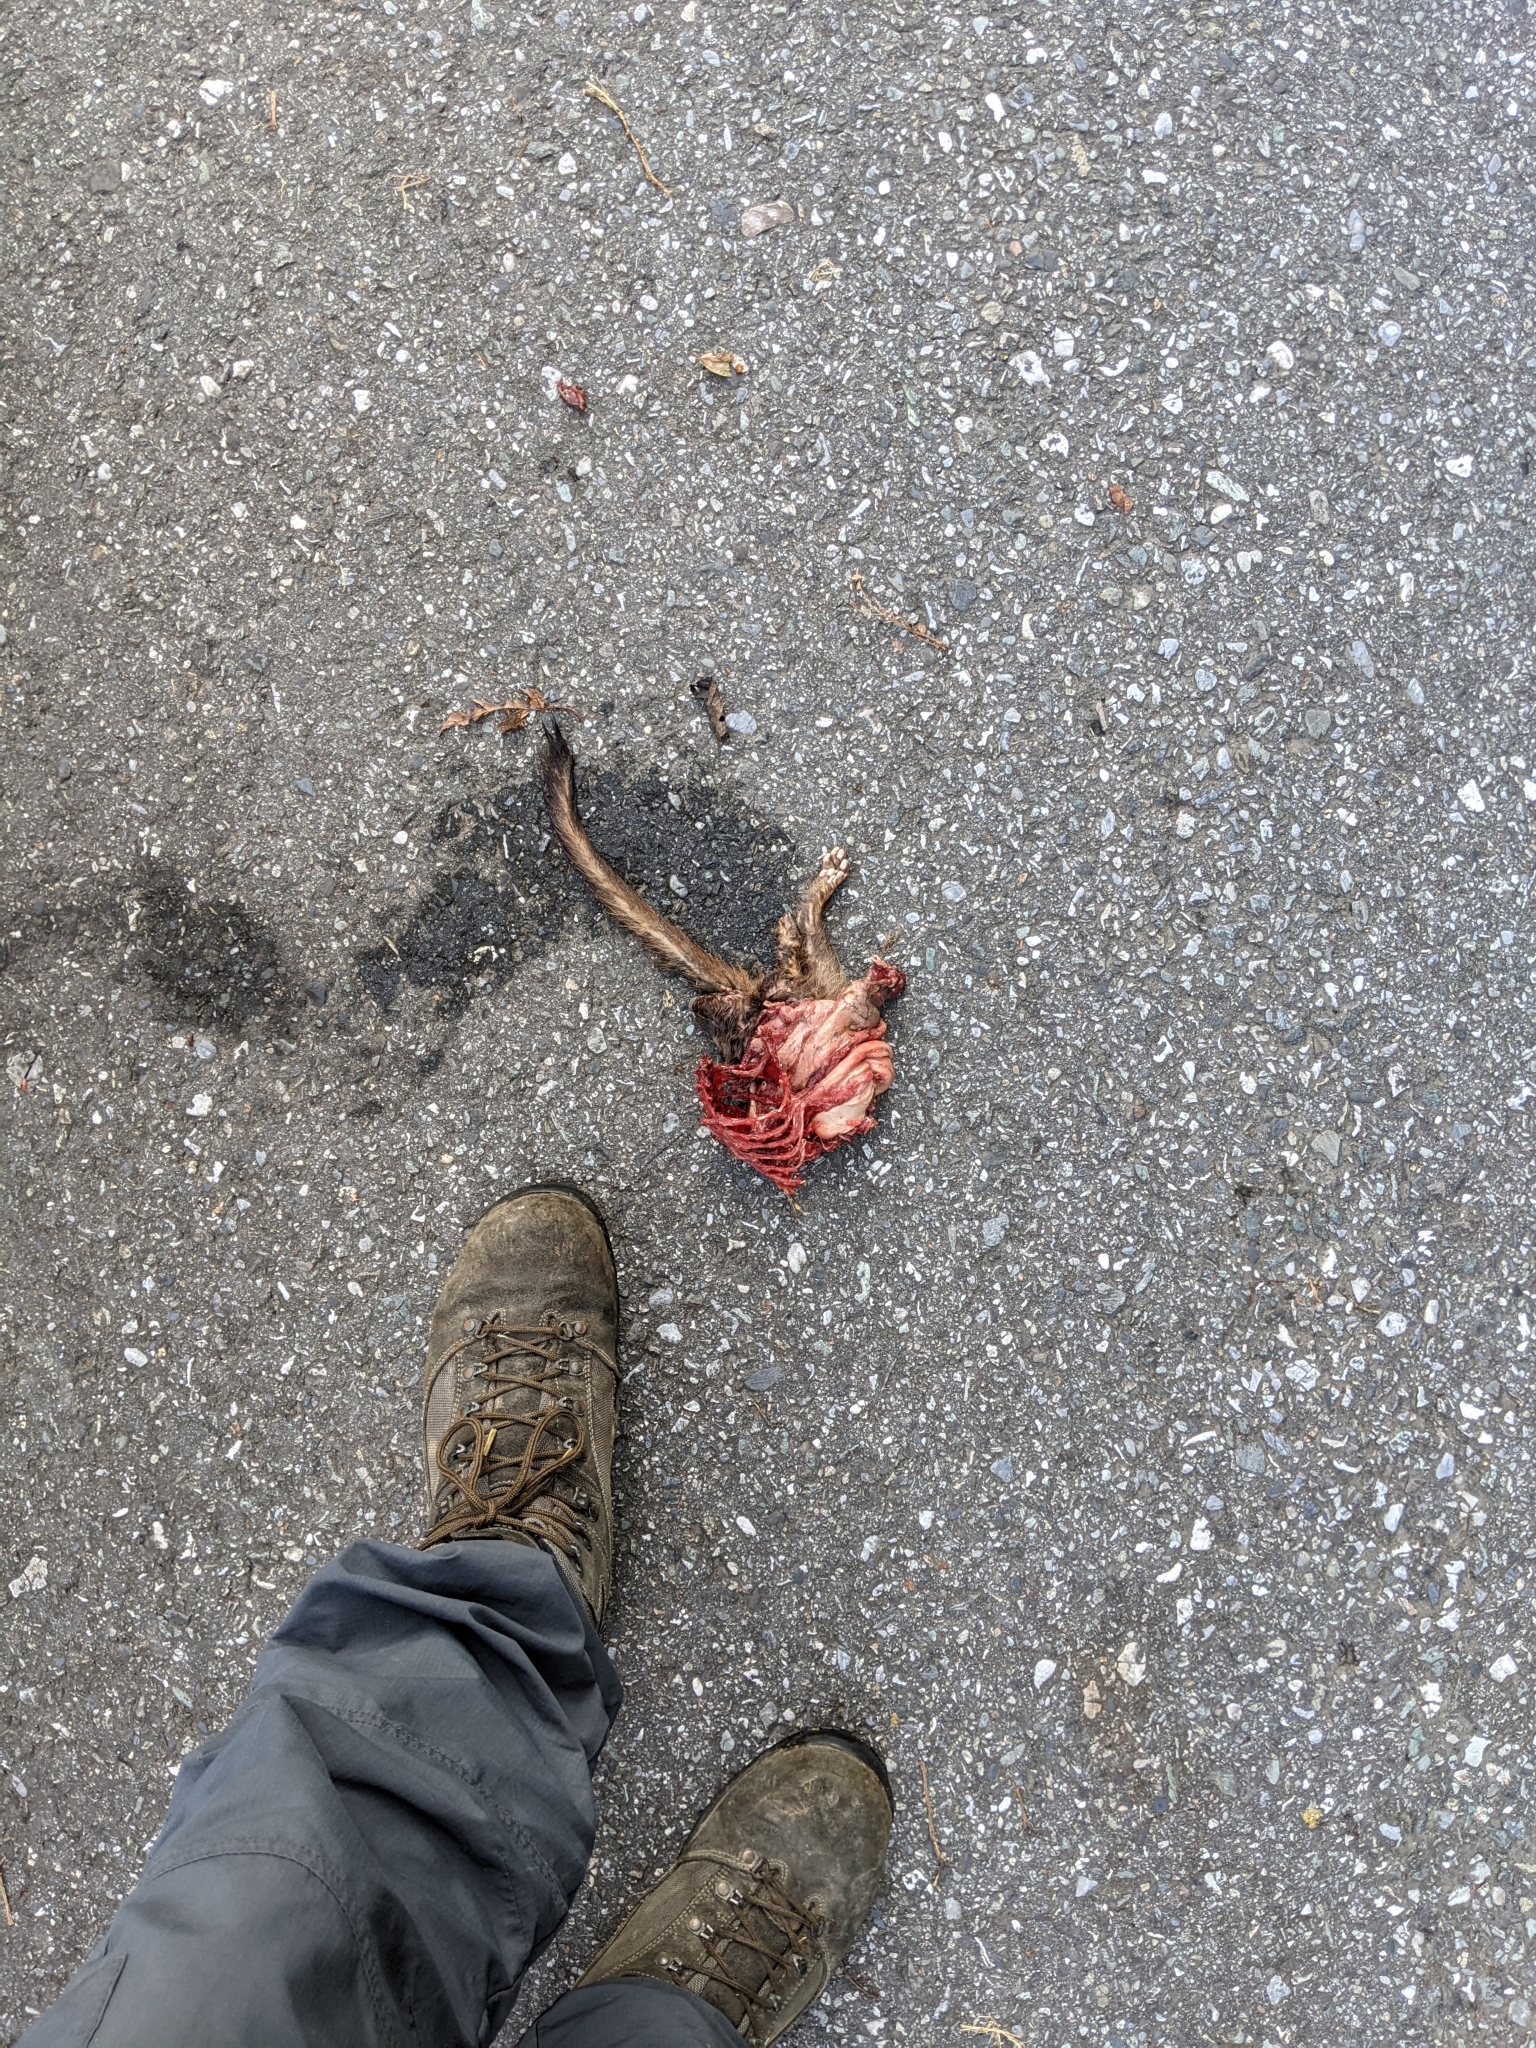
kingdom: Animalia
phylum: Chordata
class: Mammalia
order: Carnivora
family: Mustelidae
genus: Melogale
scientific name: Melogale
